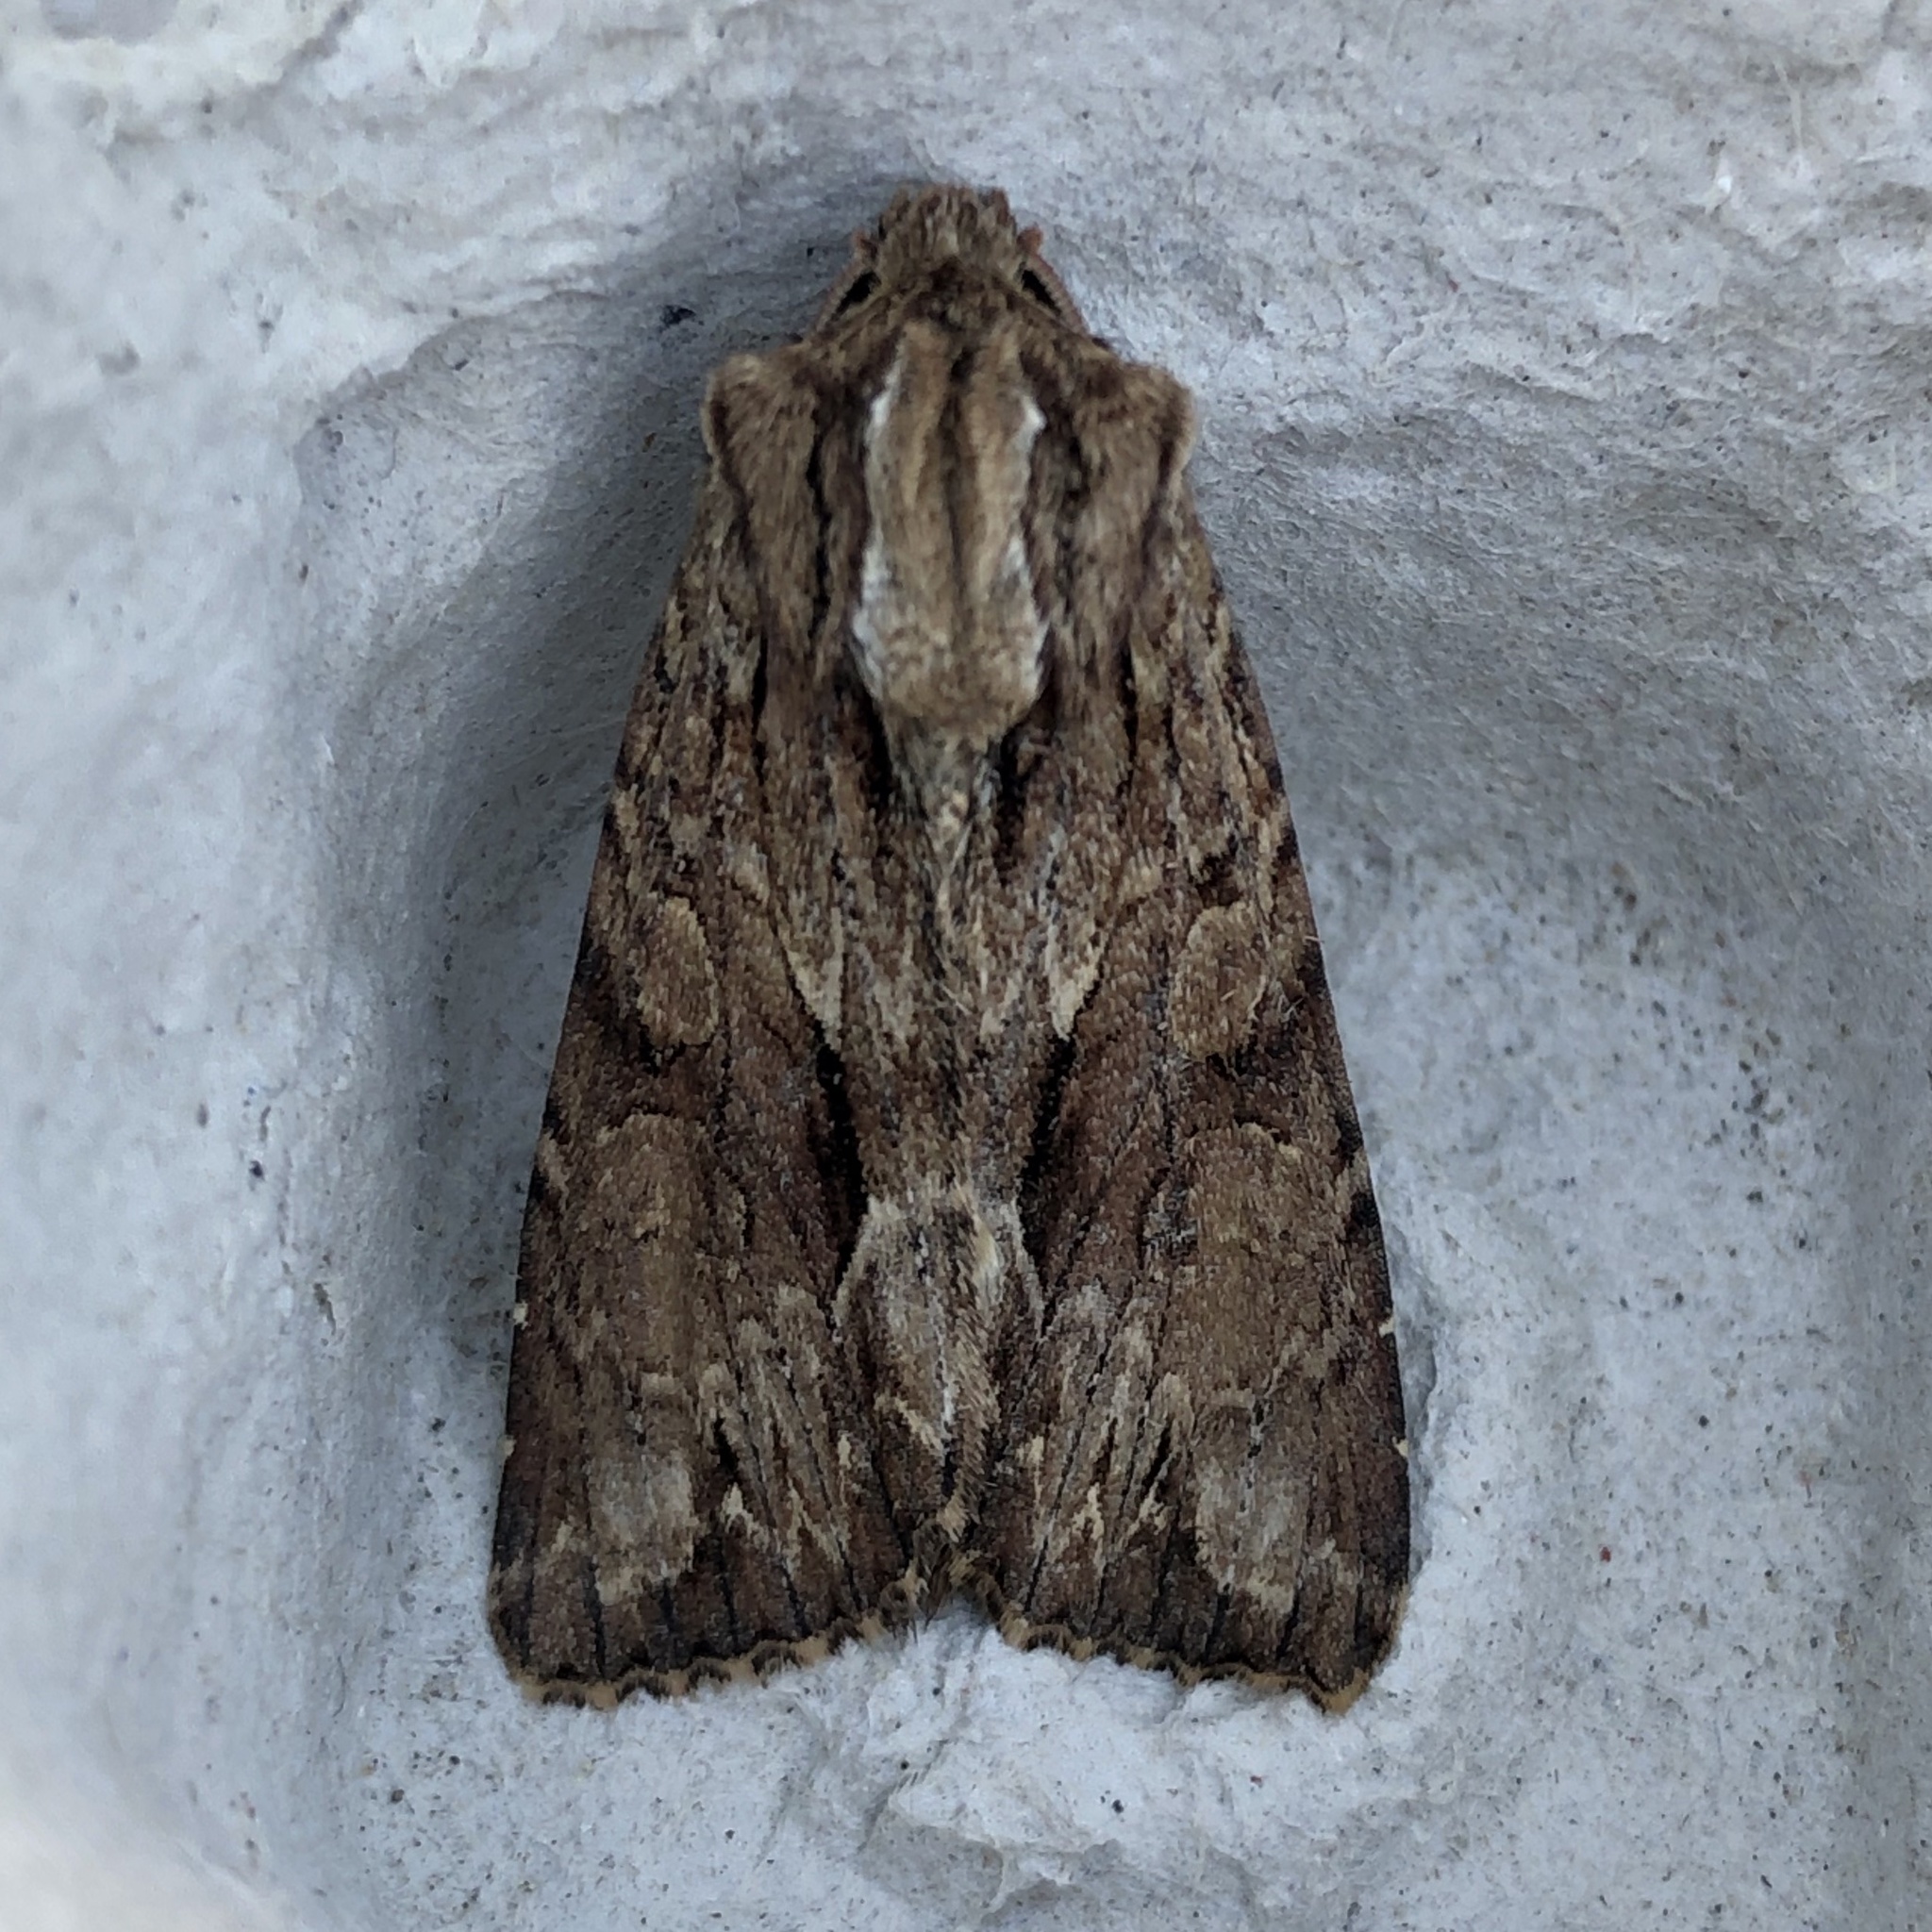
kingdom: Animalia
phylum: Arthropoda
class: Insecta
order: Lepidoptera
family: Noctuidae
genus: Apamea
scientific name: Apamea monoglypha
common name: Dark arches
